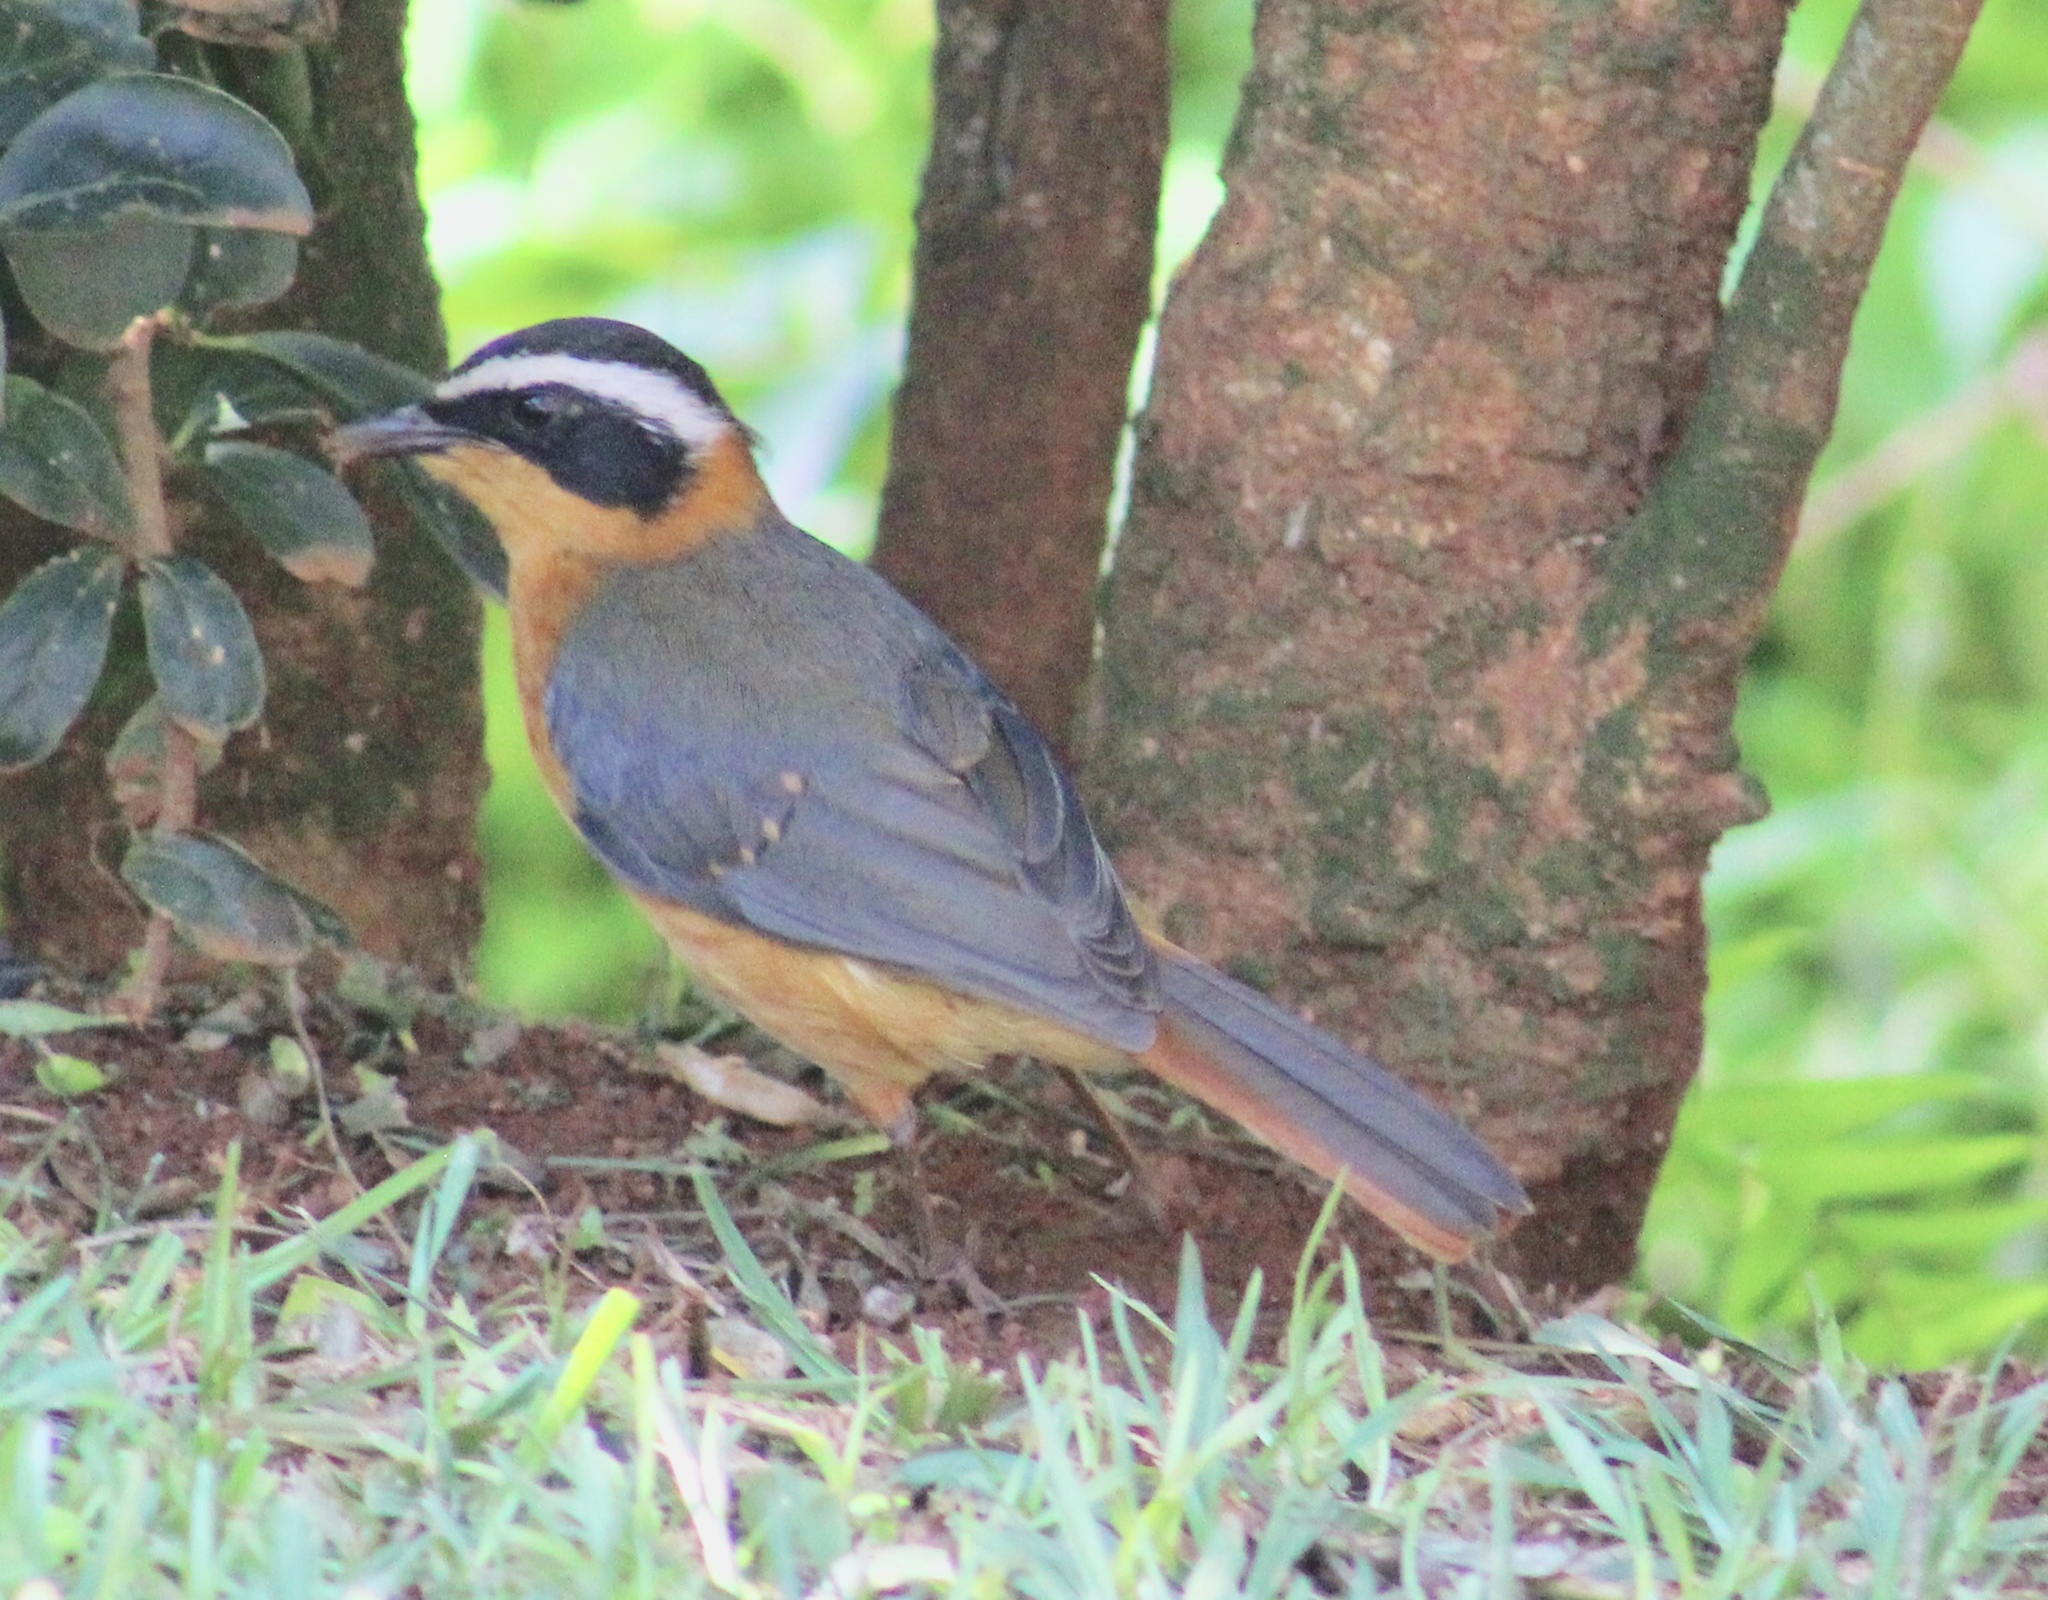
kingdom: Animalia
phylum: Chordata
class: Aves
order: Passeriformes
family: Muscicapidae
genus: Cossypha
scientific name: Cossypha heuglini
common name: White-browed robin-chat
